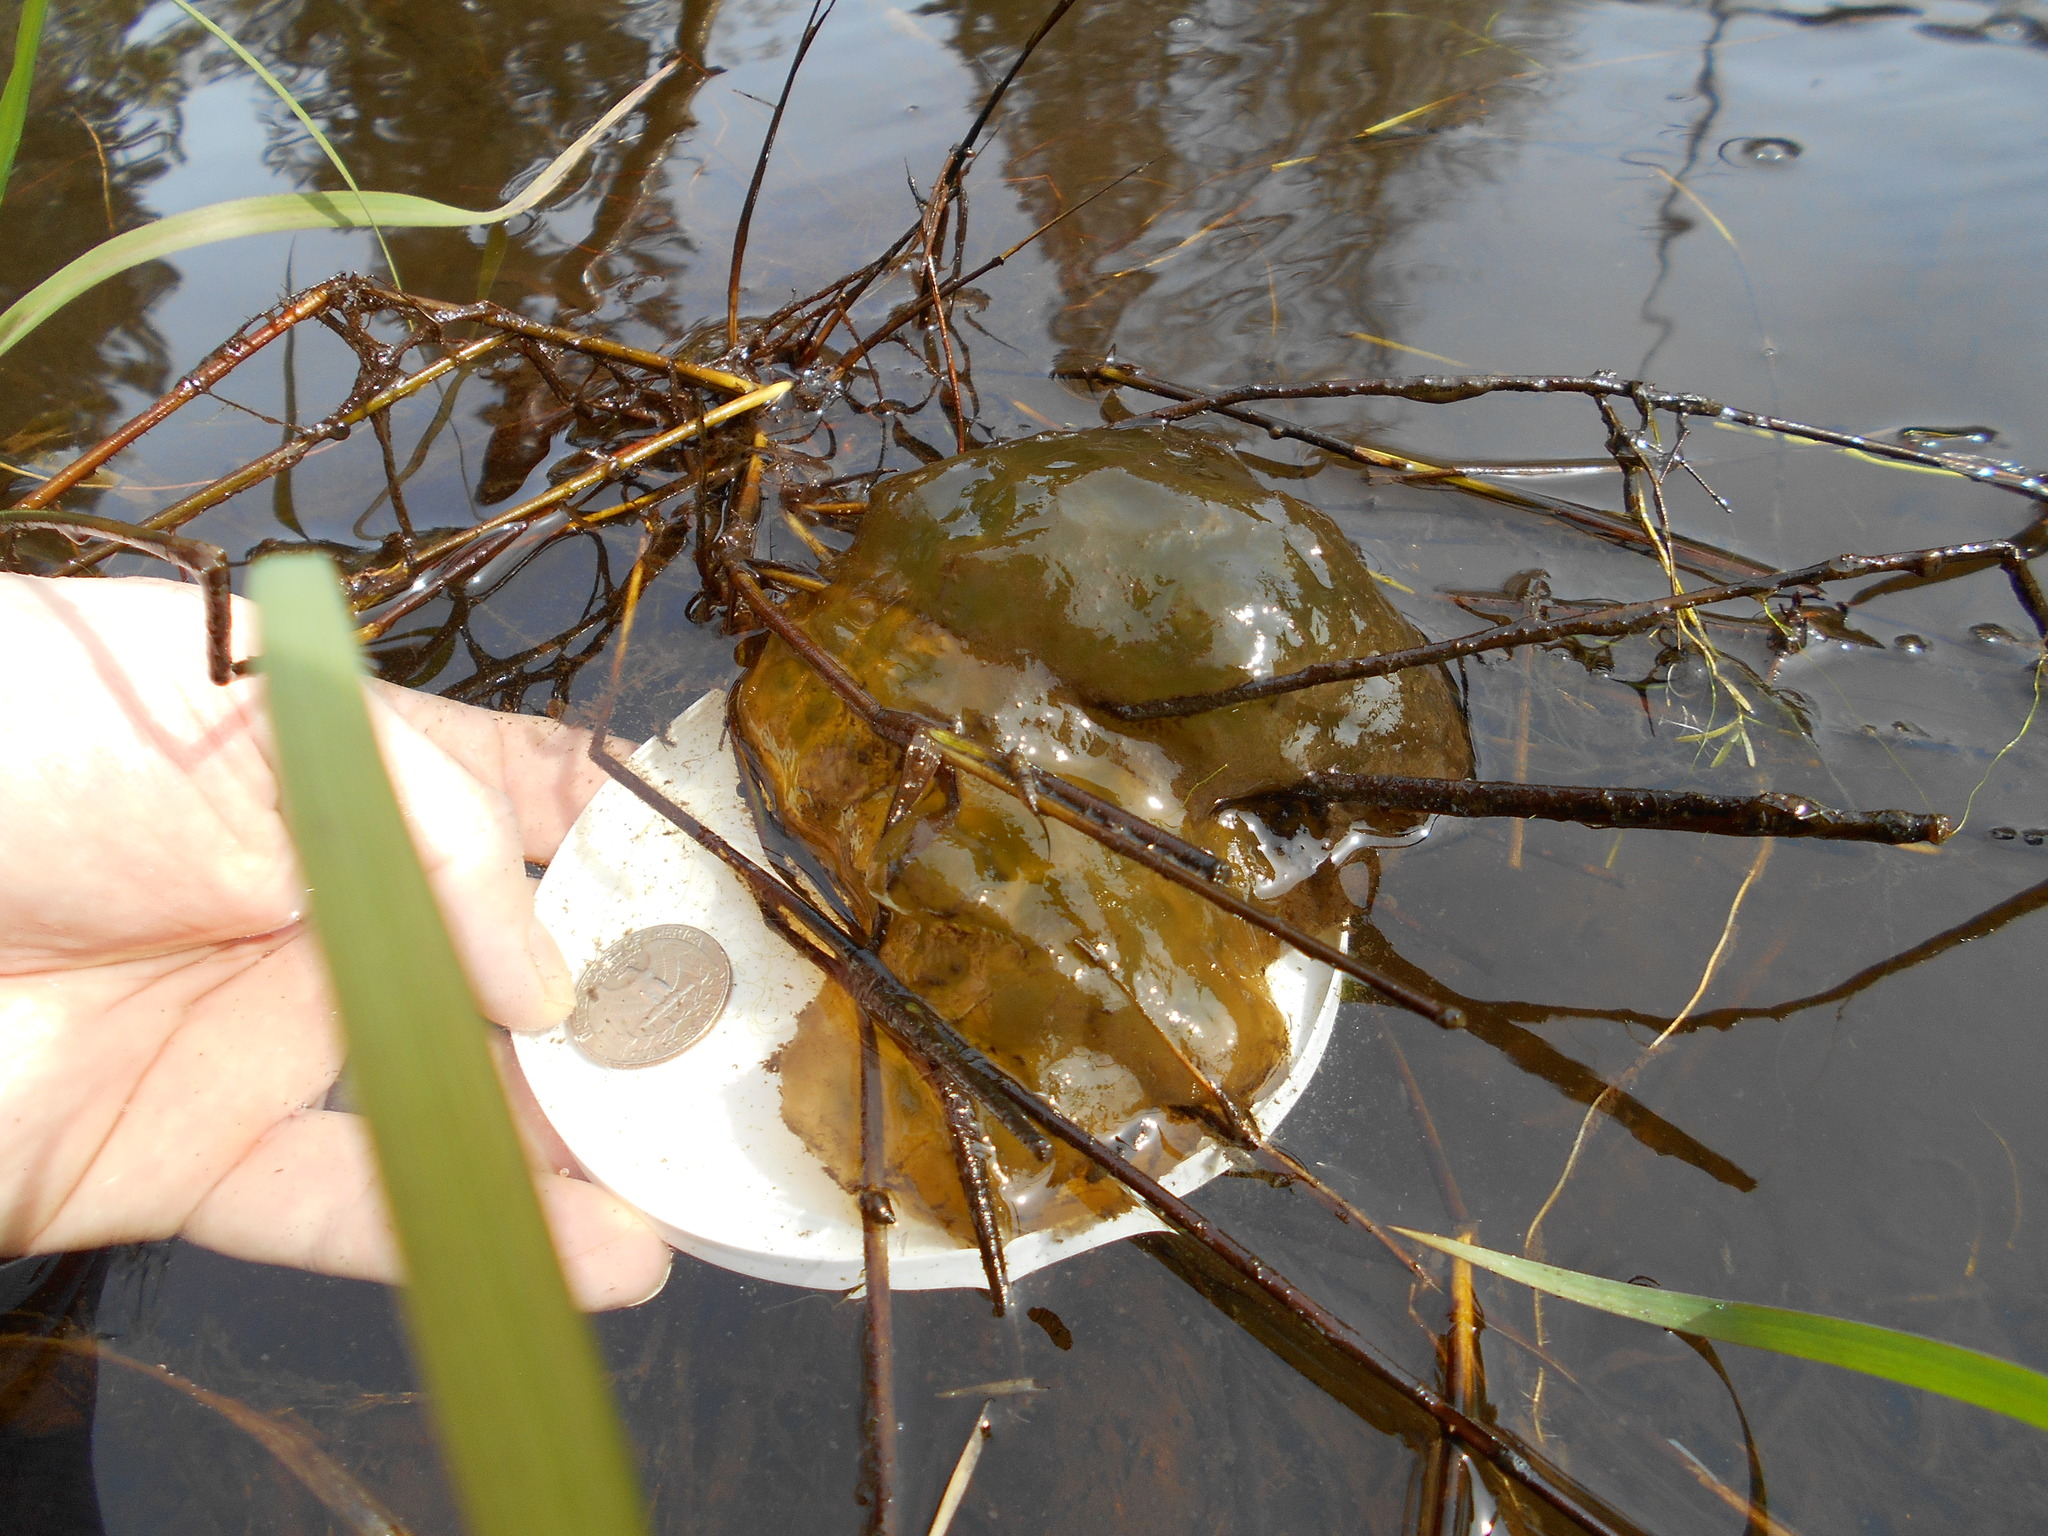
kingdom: Animalia
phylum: Chordata
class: Amphibia
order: Caudata
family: Ambystomatidae
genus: Ambystoma
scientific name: Ambystoma gracile
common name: Northwestern salamander
